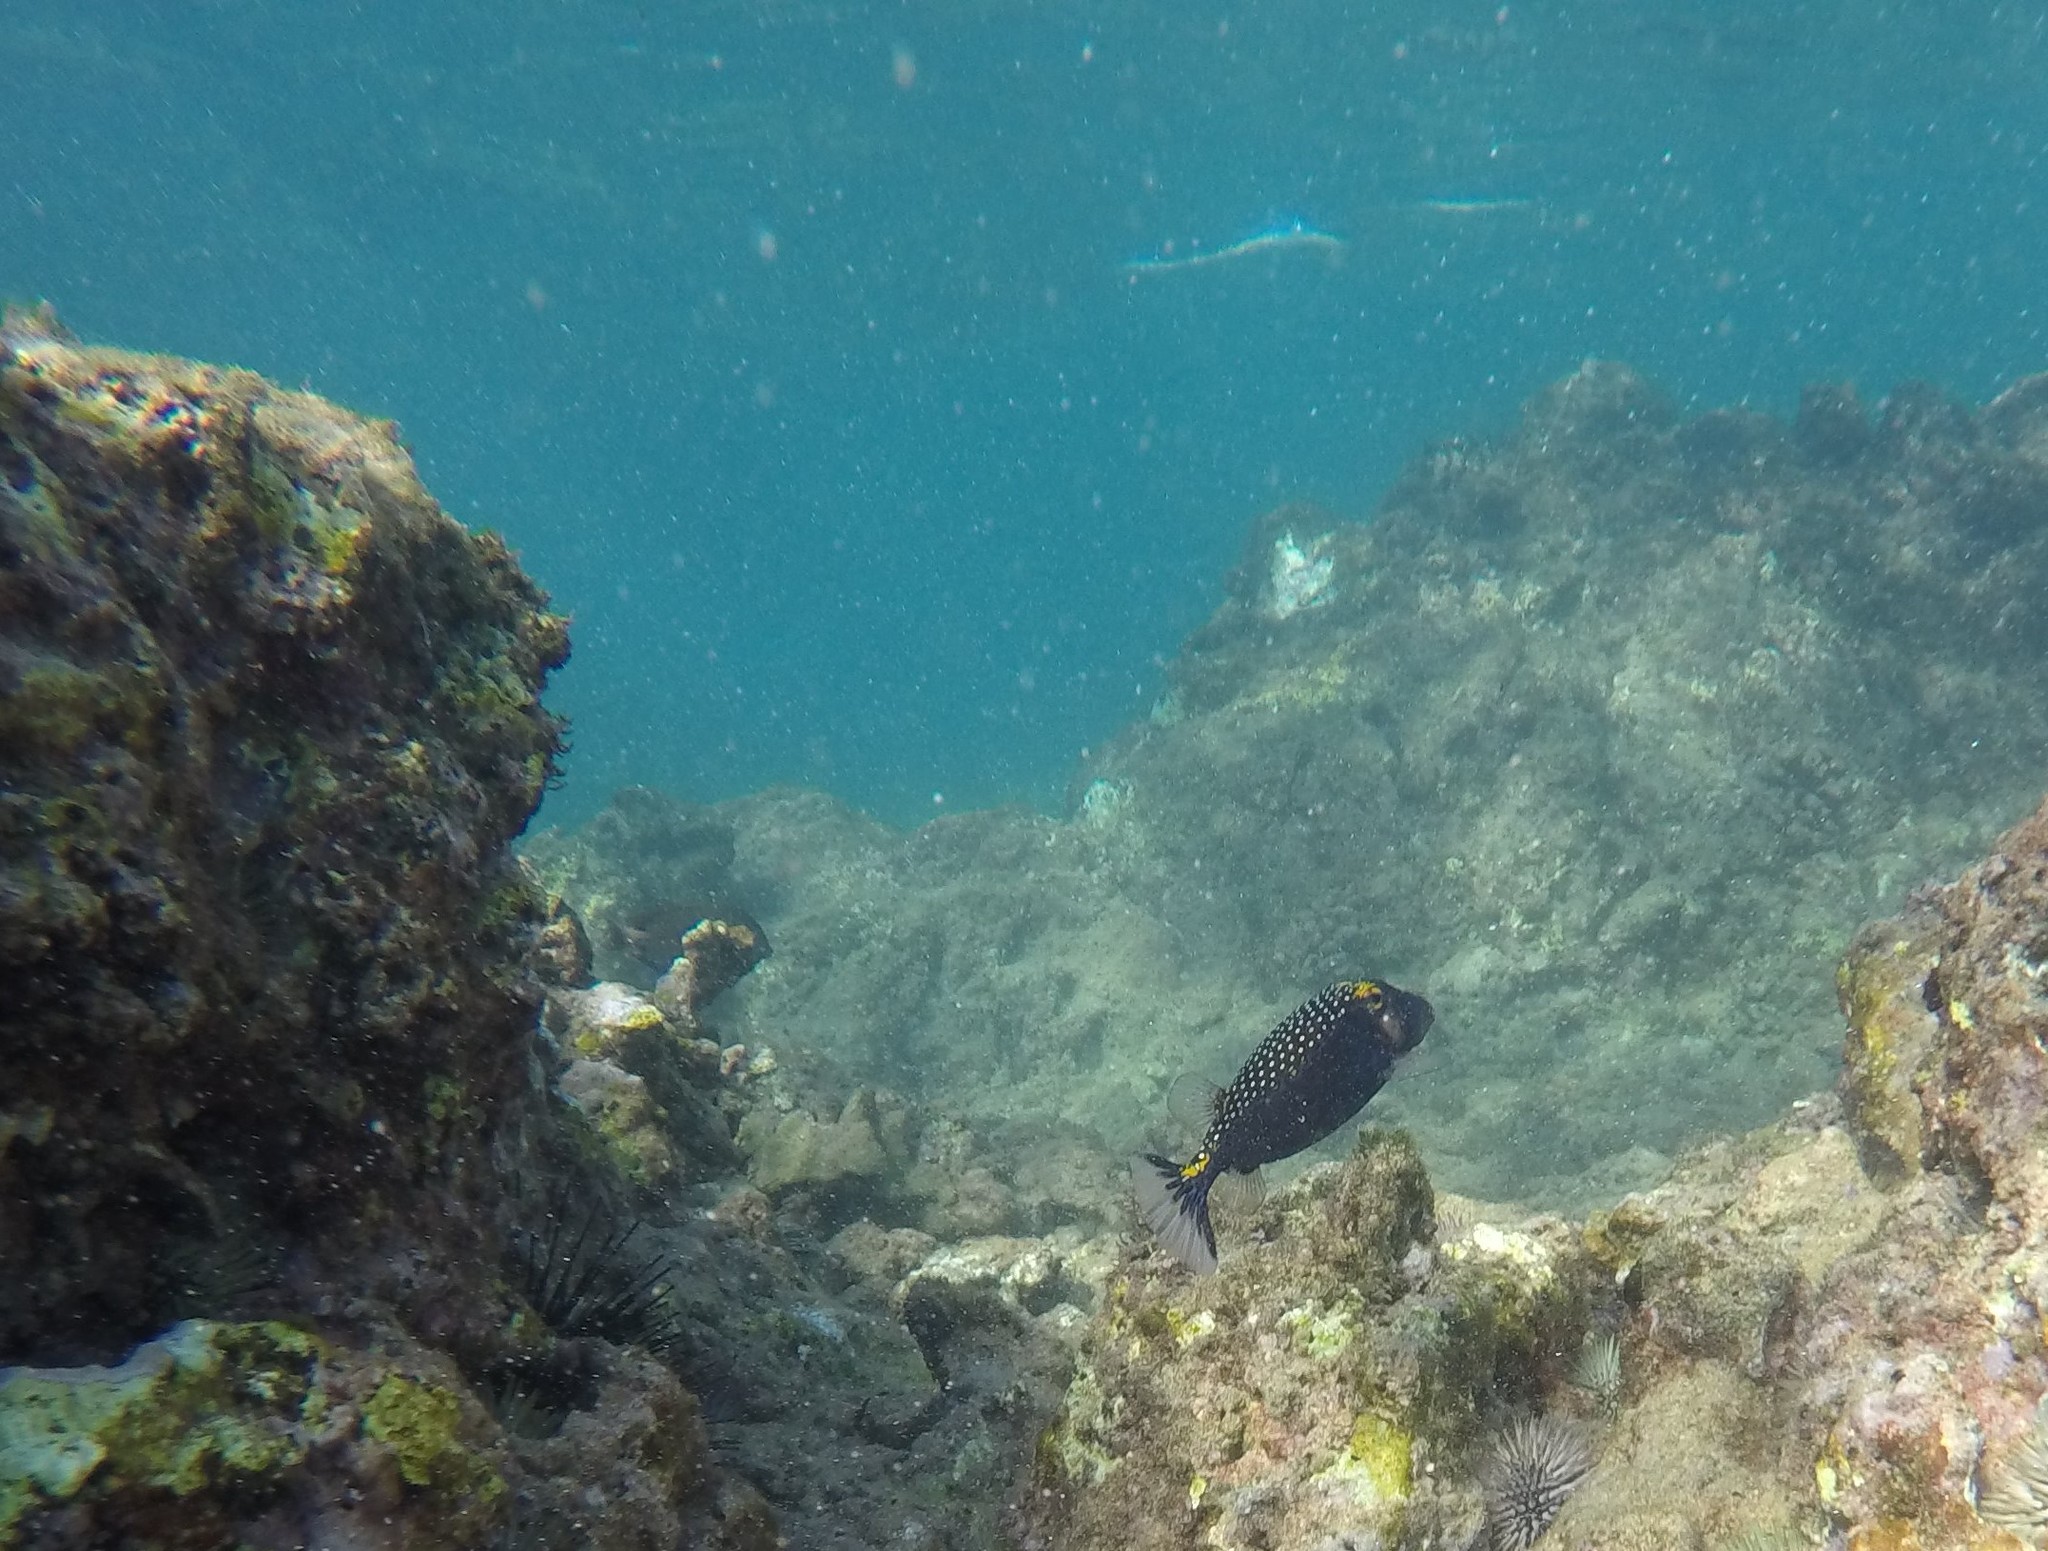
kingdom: Animalia
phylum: Chordata
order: Tetraodontiformes
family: Ostraciidae
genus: Ostracion
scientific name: Ostracion meleagris
